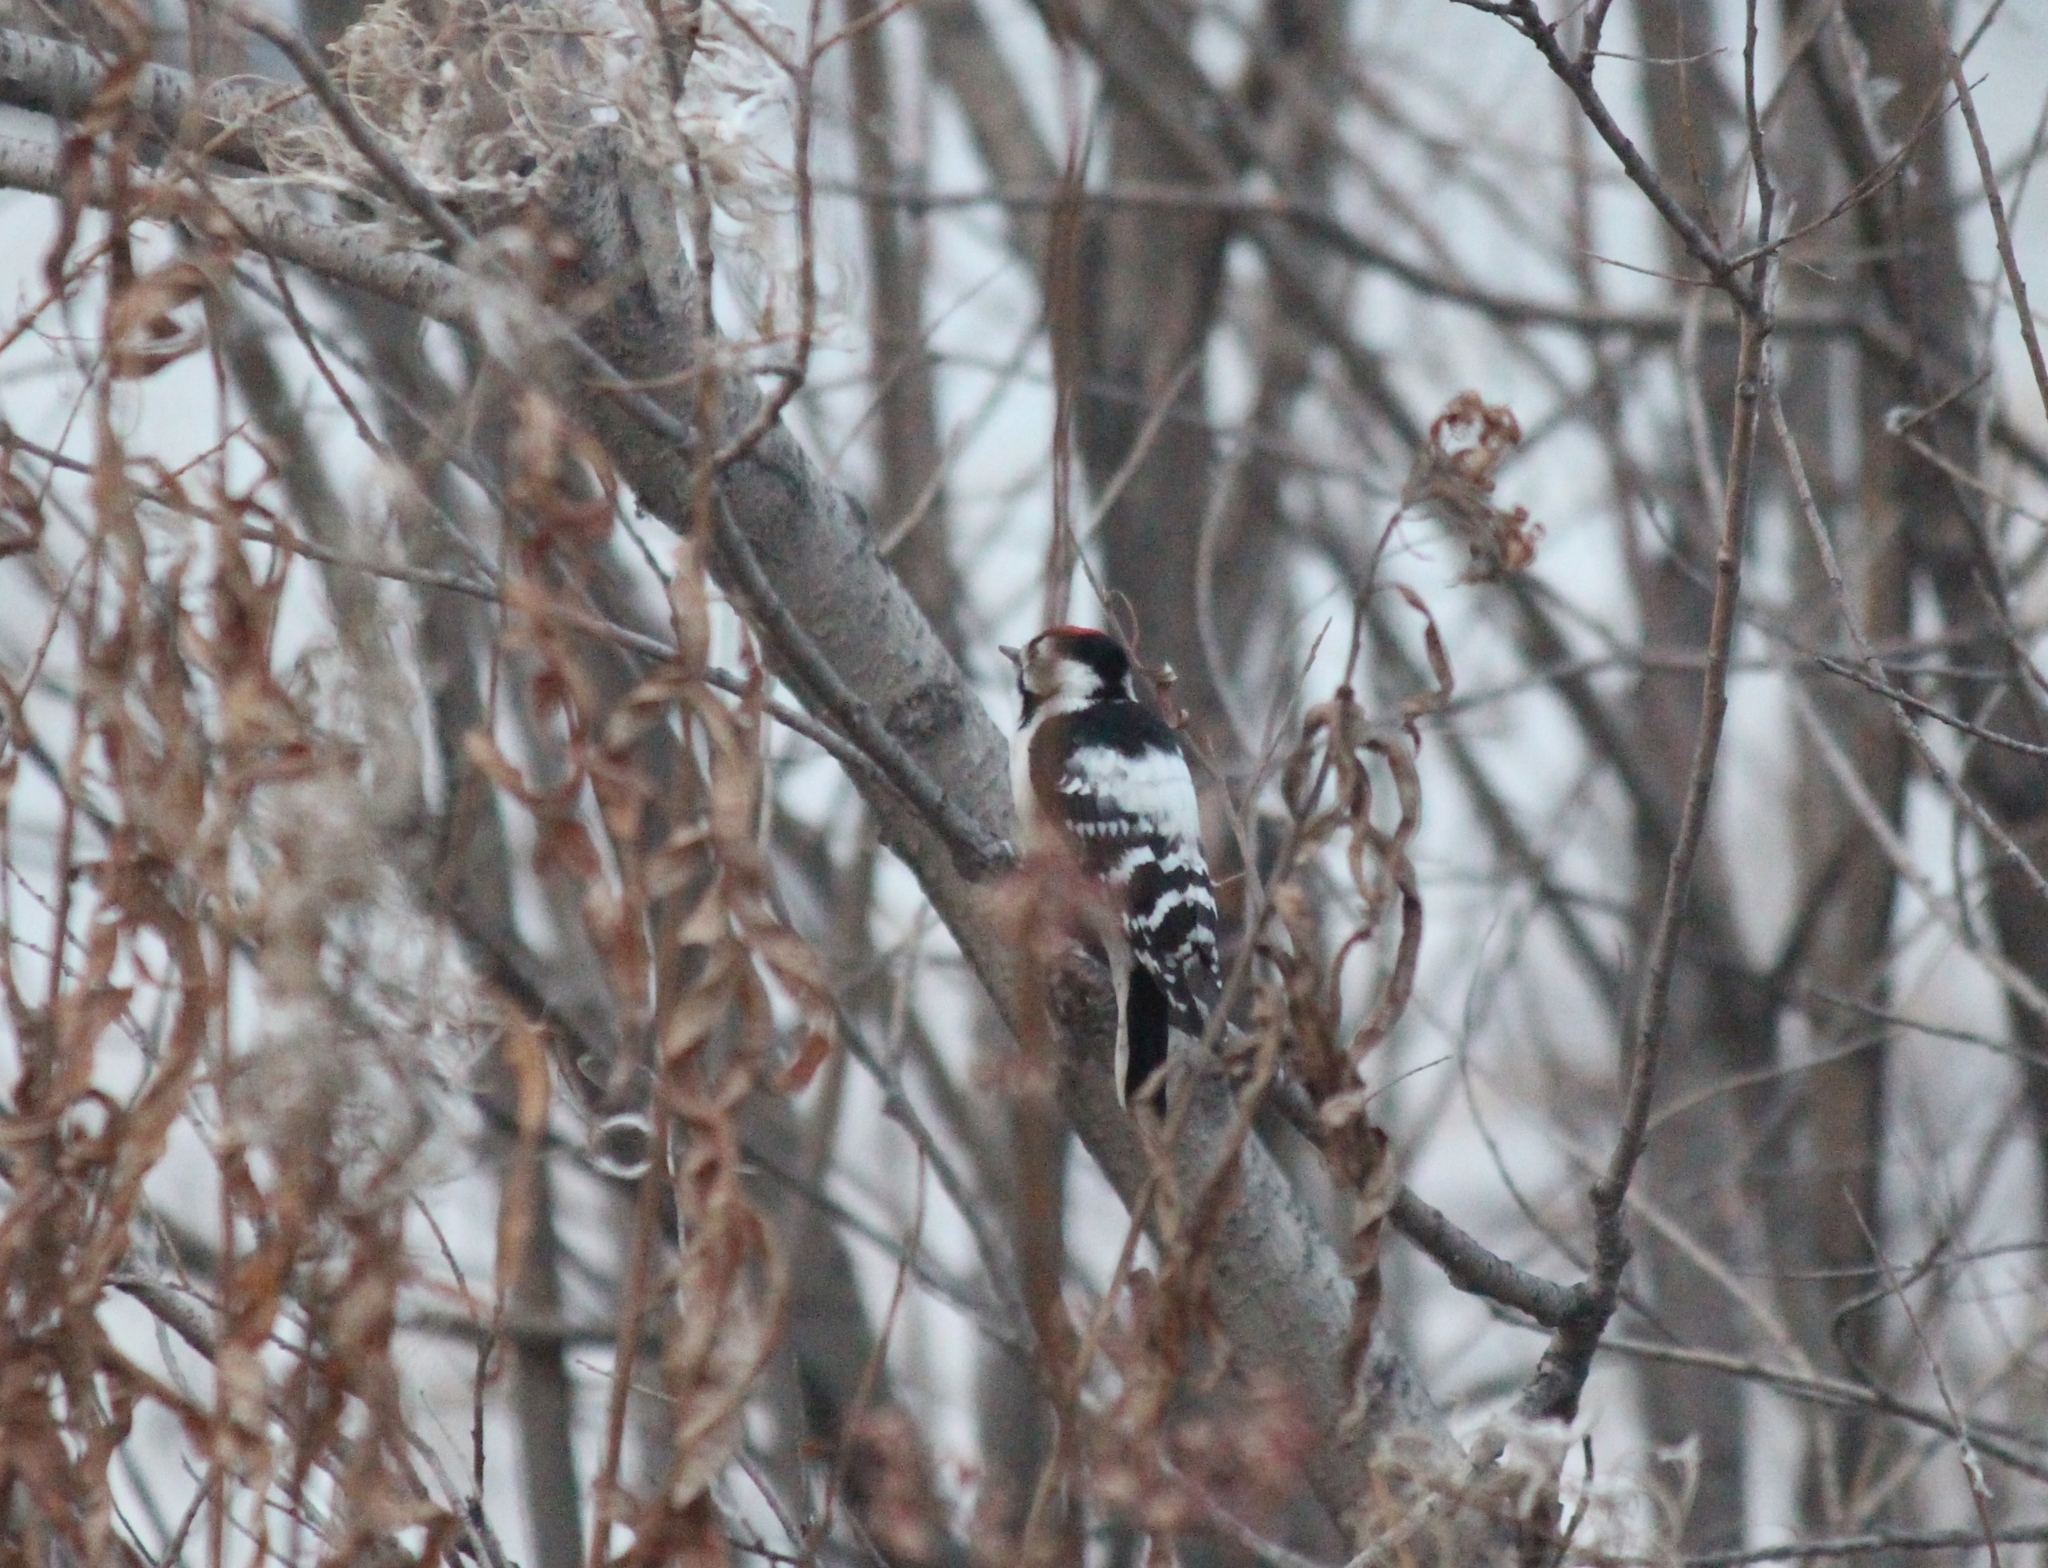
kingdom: Animalia
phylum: Chordata
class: Aves
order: Piciformes
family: Picidae
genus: Dryobates
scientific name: Dryobates minor
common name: Lesser spotted woodpecker
